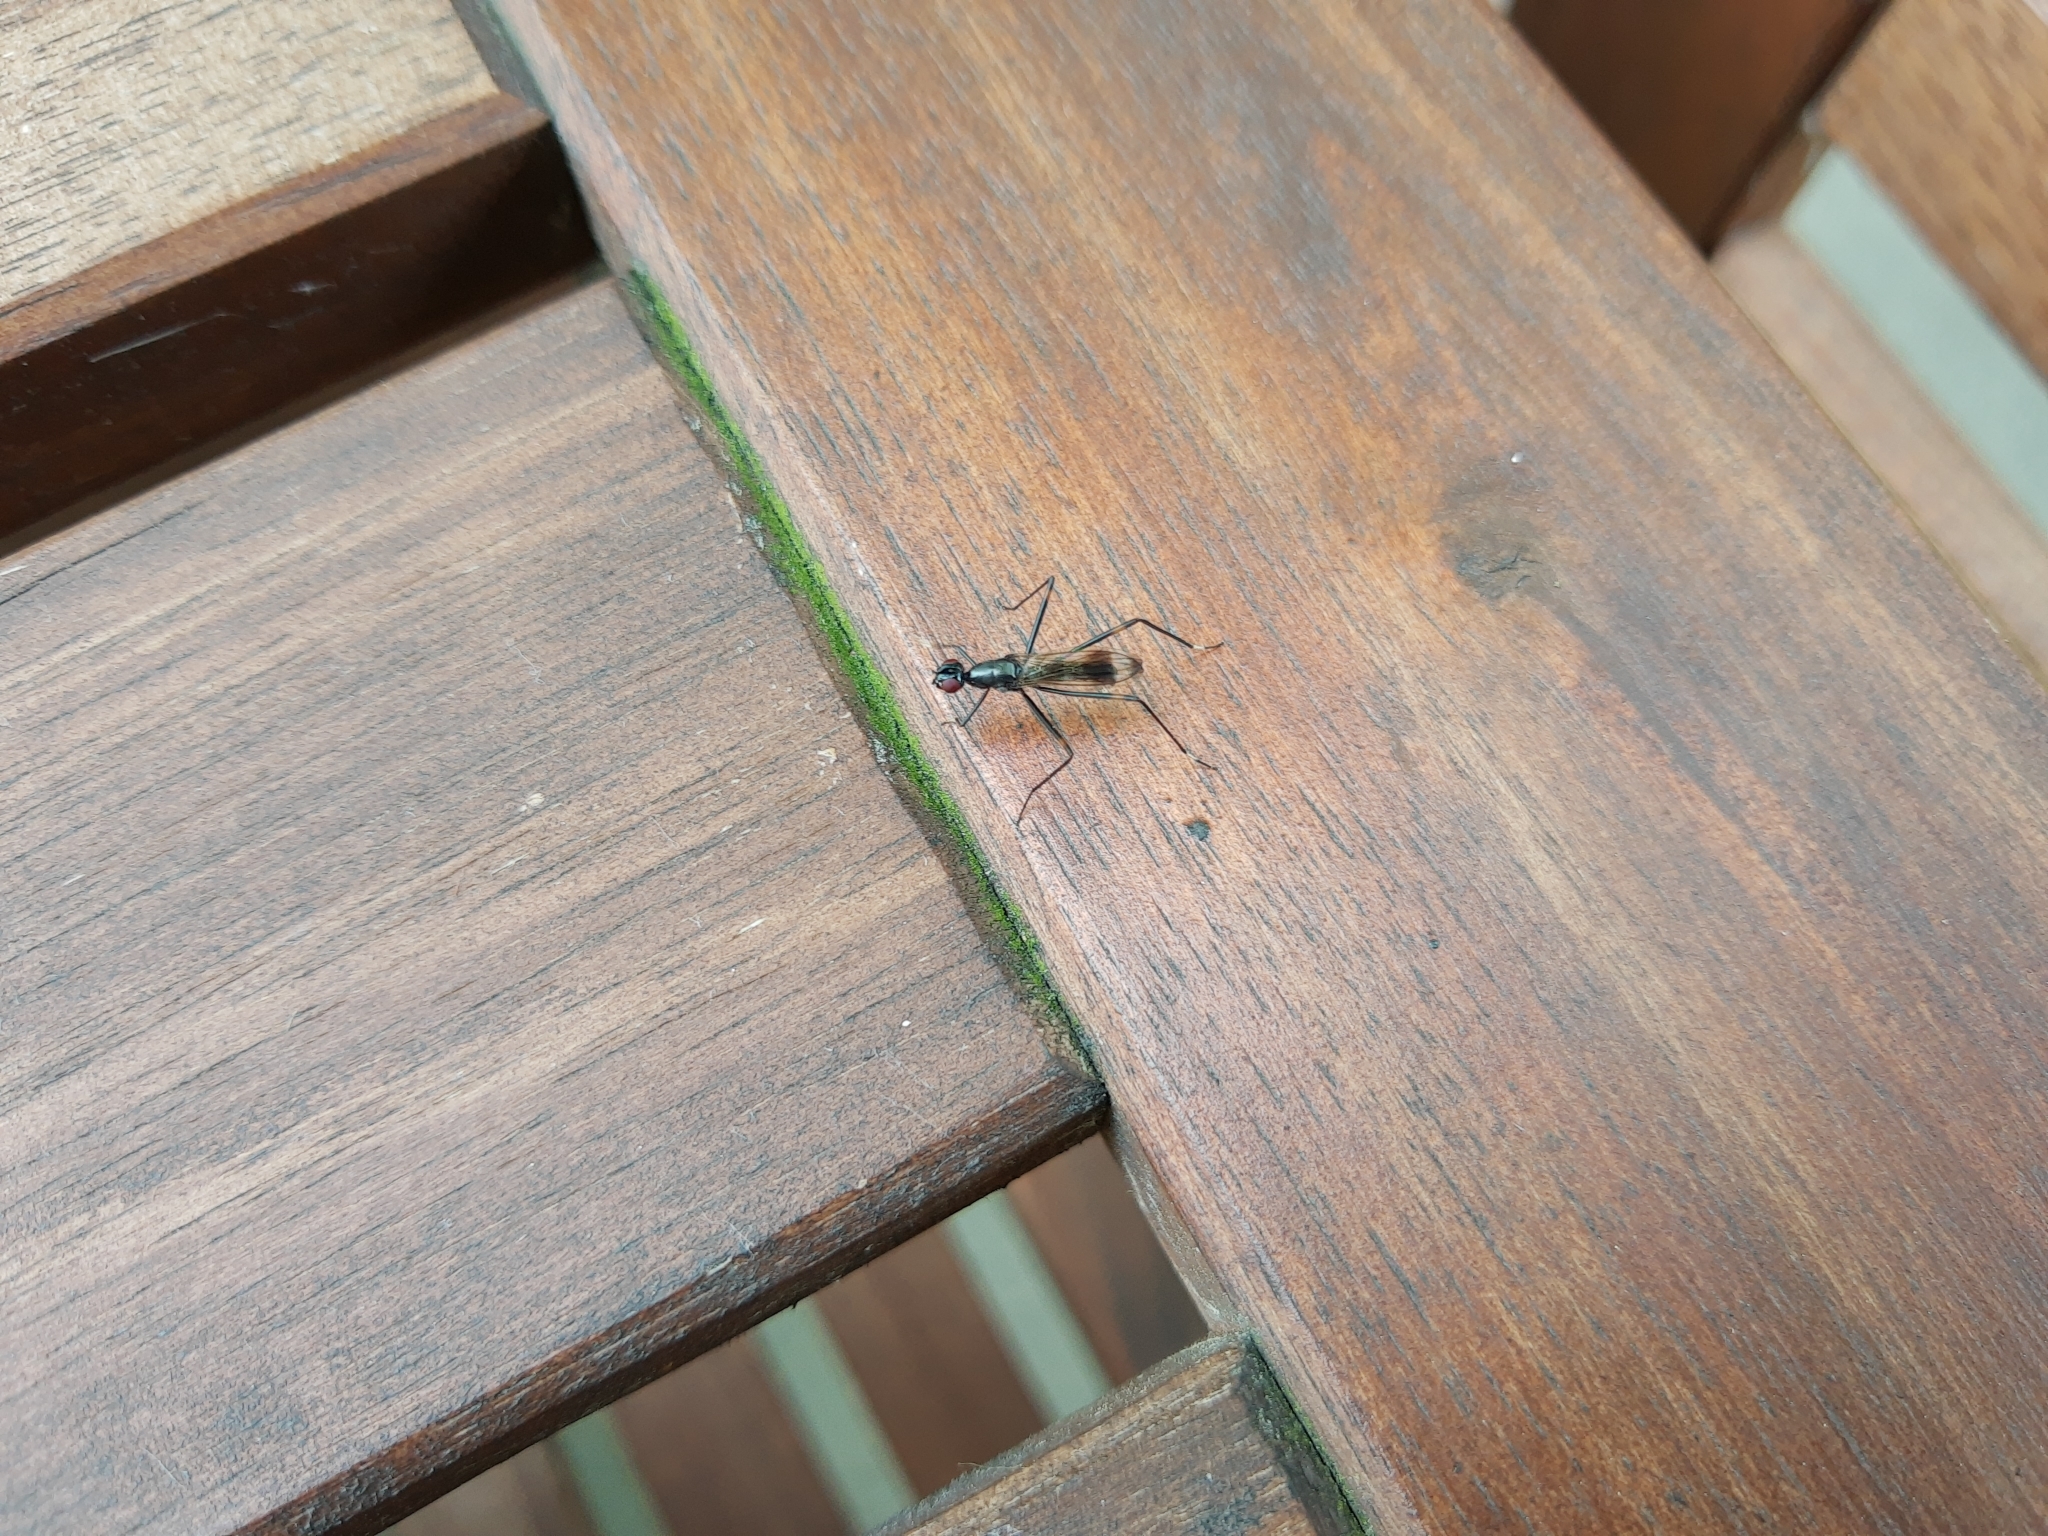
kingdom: Animalia
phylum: Arthropoda
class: Insecta
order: Diptera
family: Micropezidae
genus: Rainieria
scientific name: Rainieria calceata
